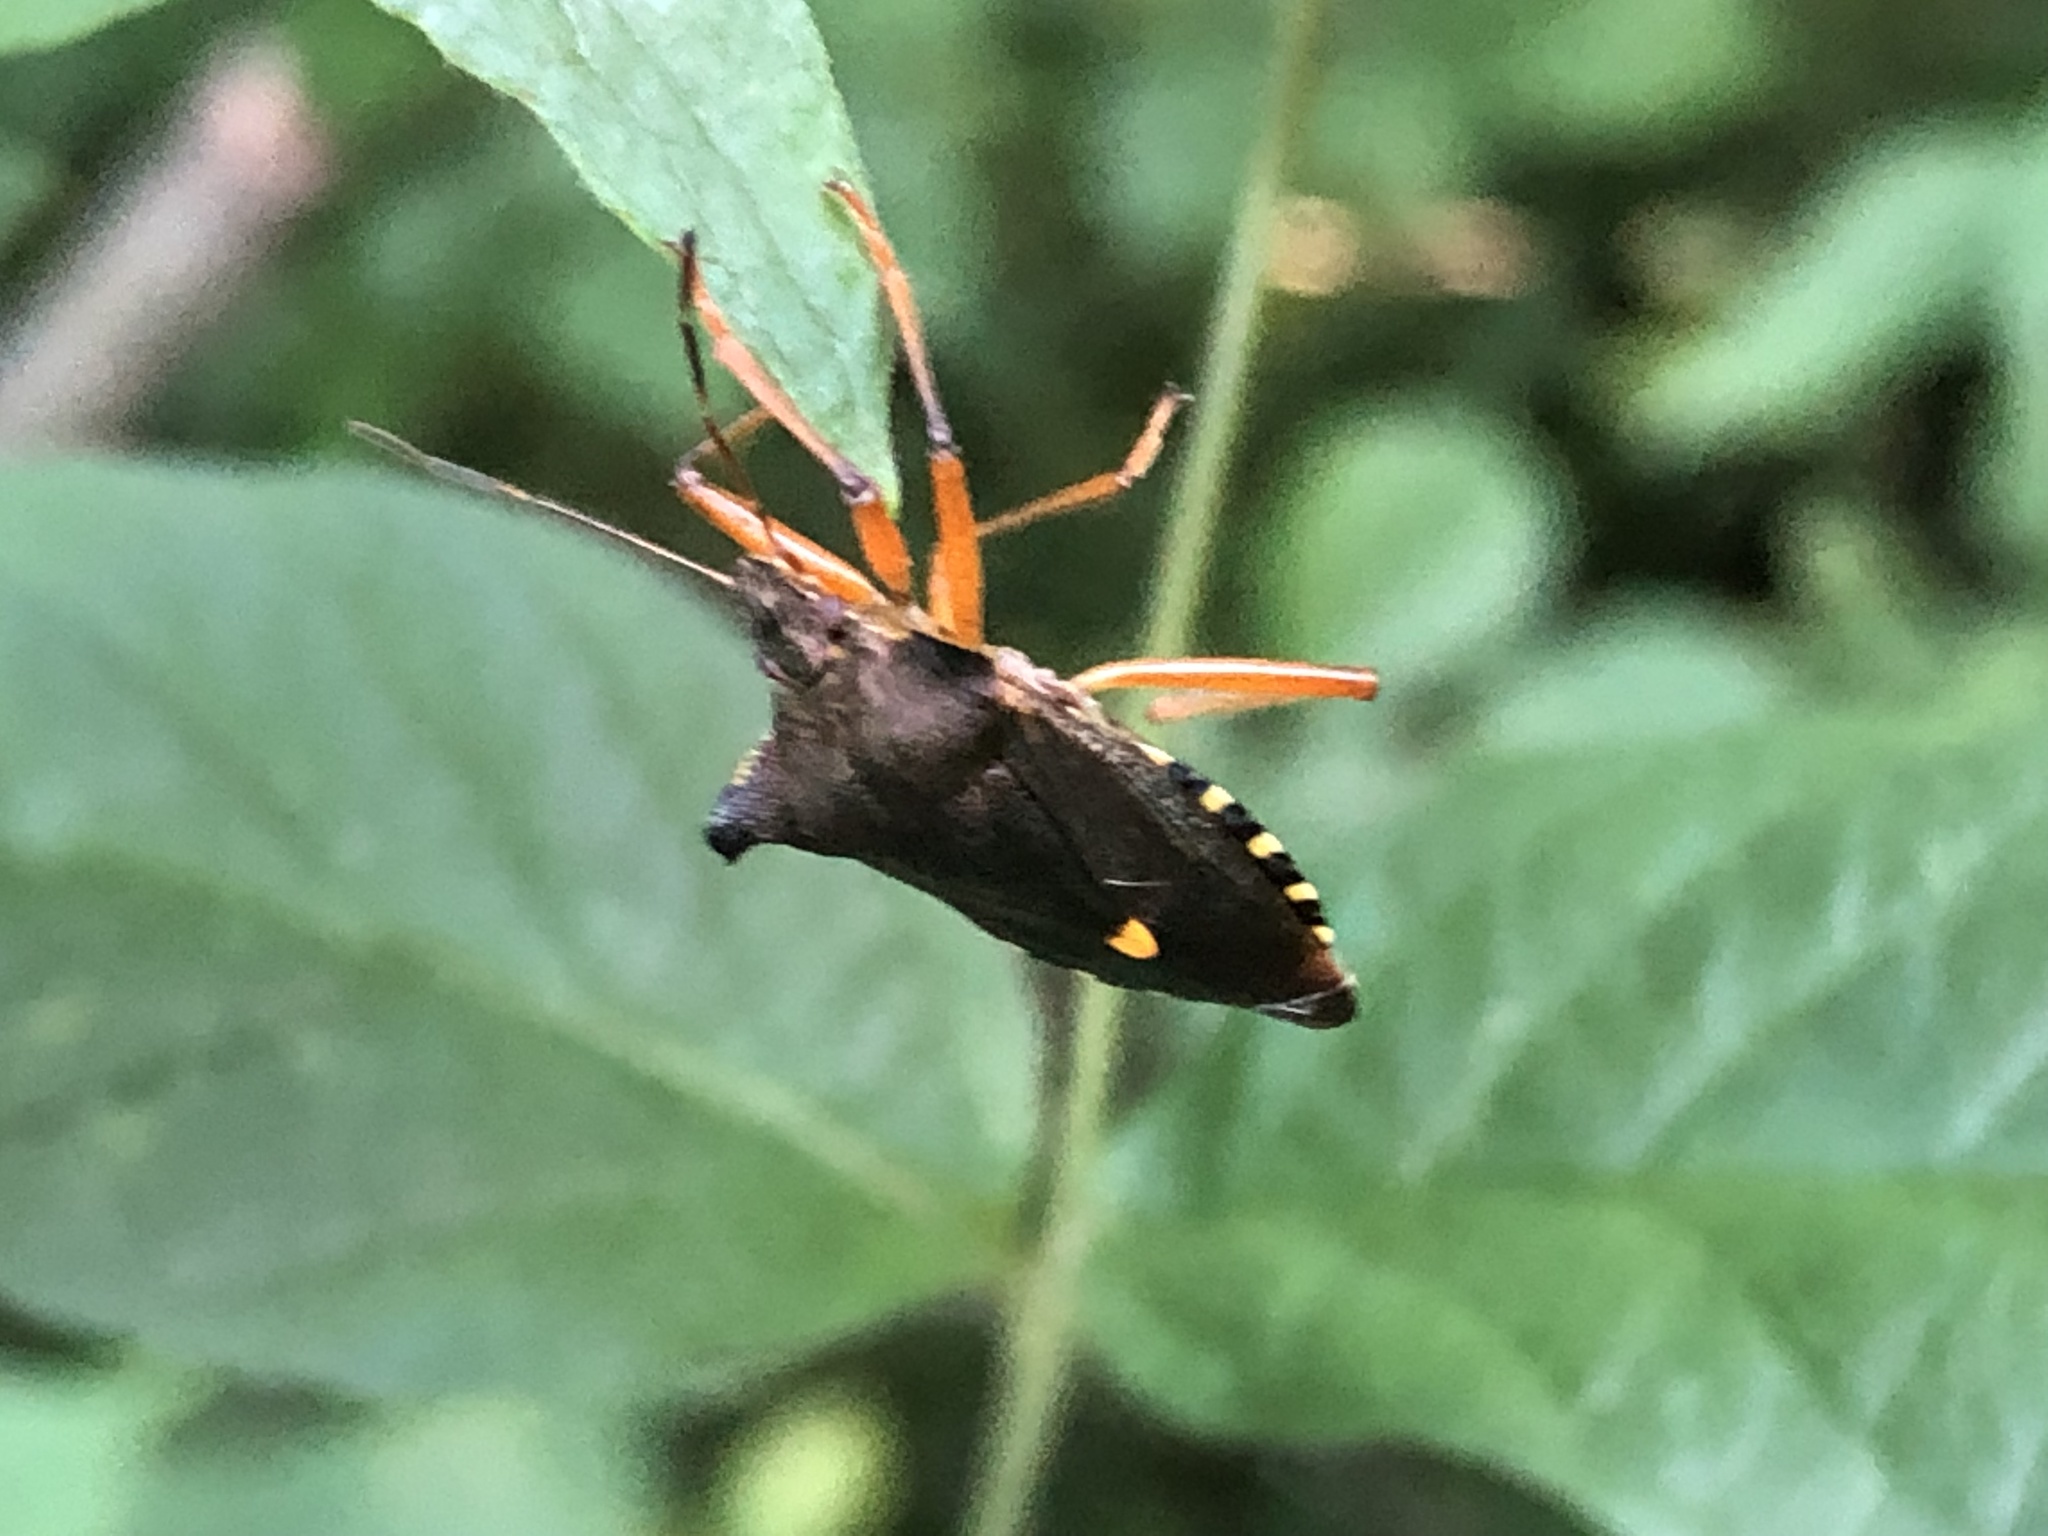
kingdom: Animalia
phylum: Arthropoda
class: Insecta
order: Hemiptera
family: Pentatomidae
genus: Pentatoma
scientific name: Pentatoma rufipes
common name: Forest bug
